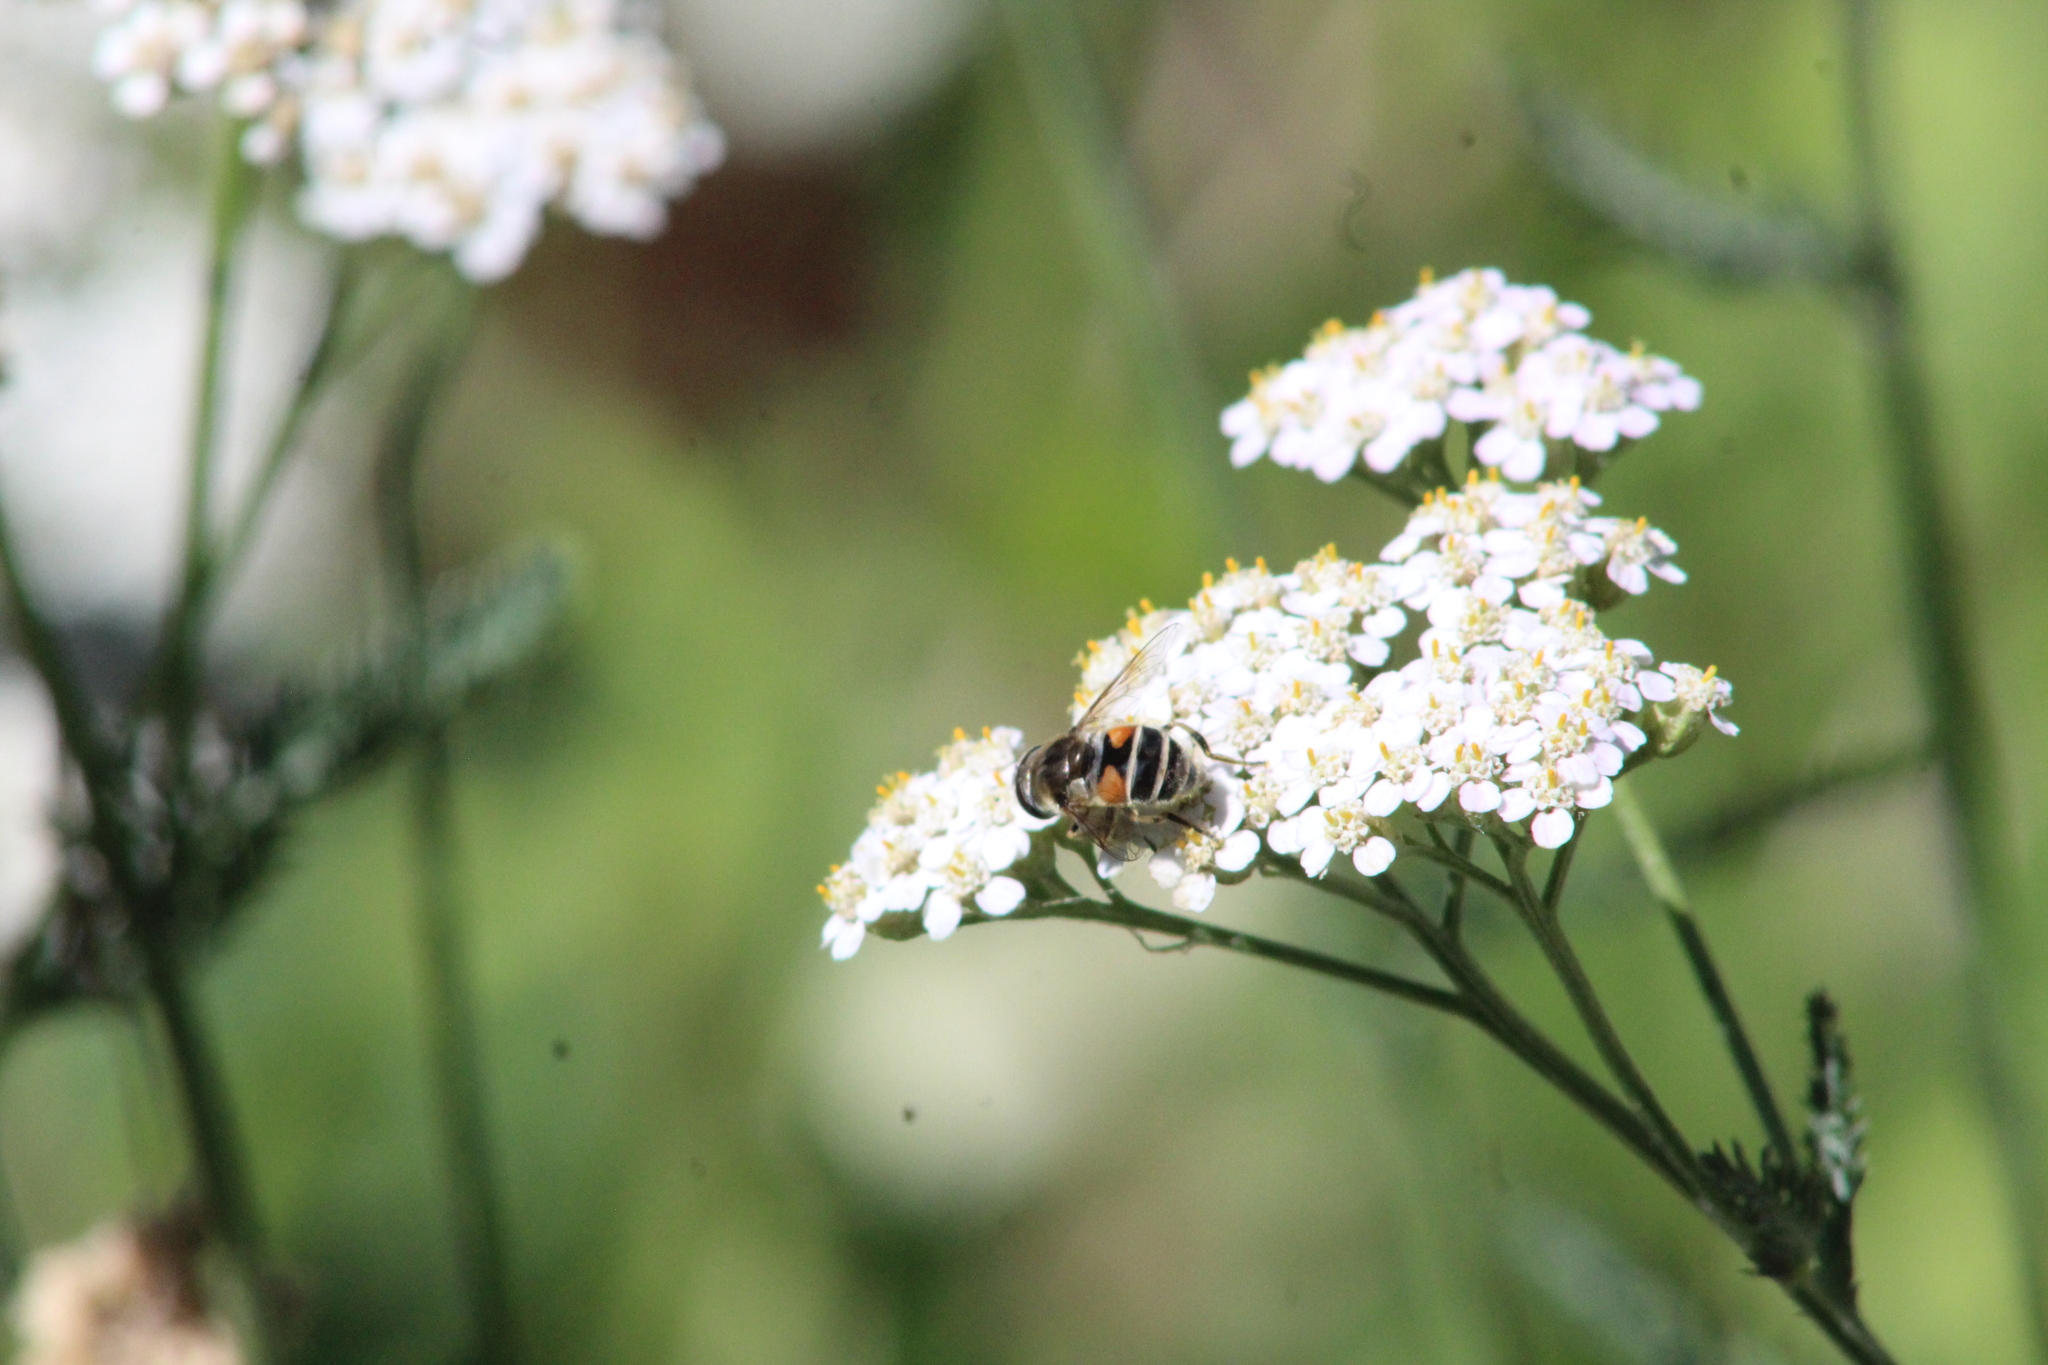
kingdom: Animalia
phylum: Arthropoda
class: Insecta
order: Diptera
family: Syrphidae
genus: Eristalis
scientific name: Eristalis arbustorum
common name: Hover fly
